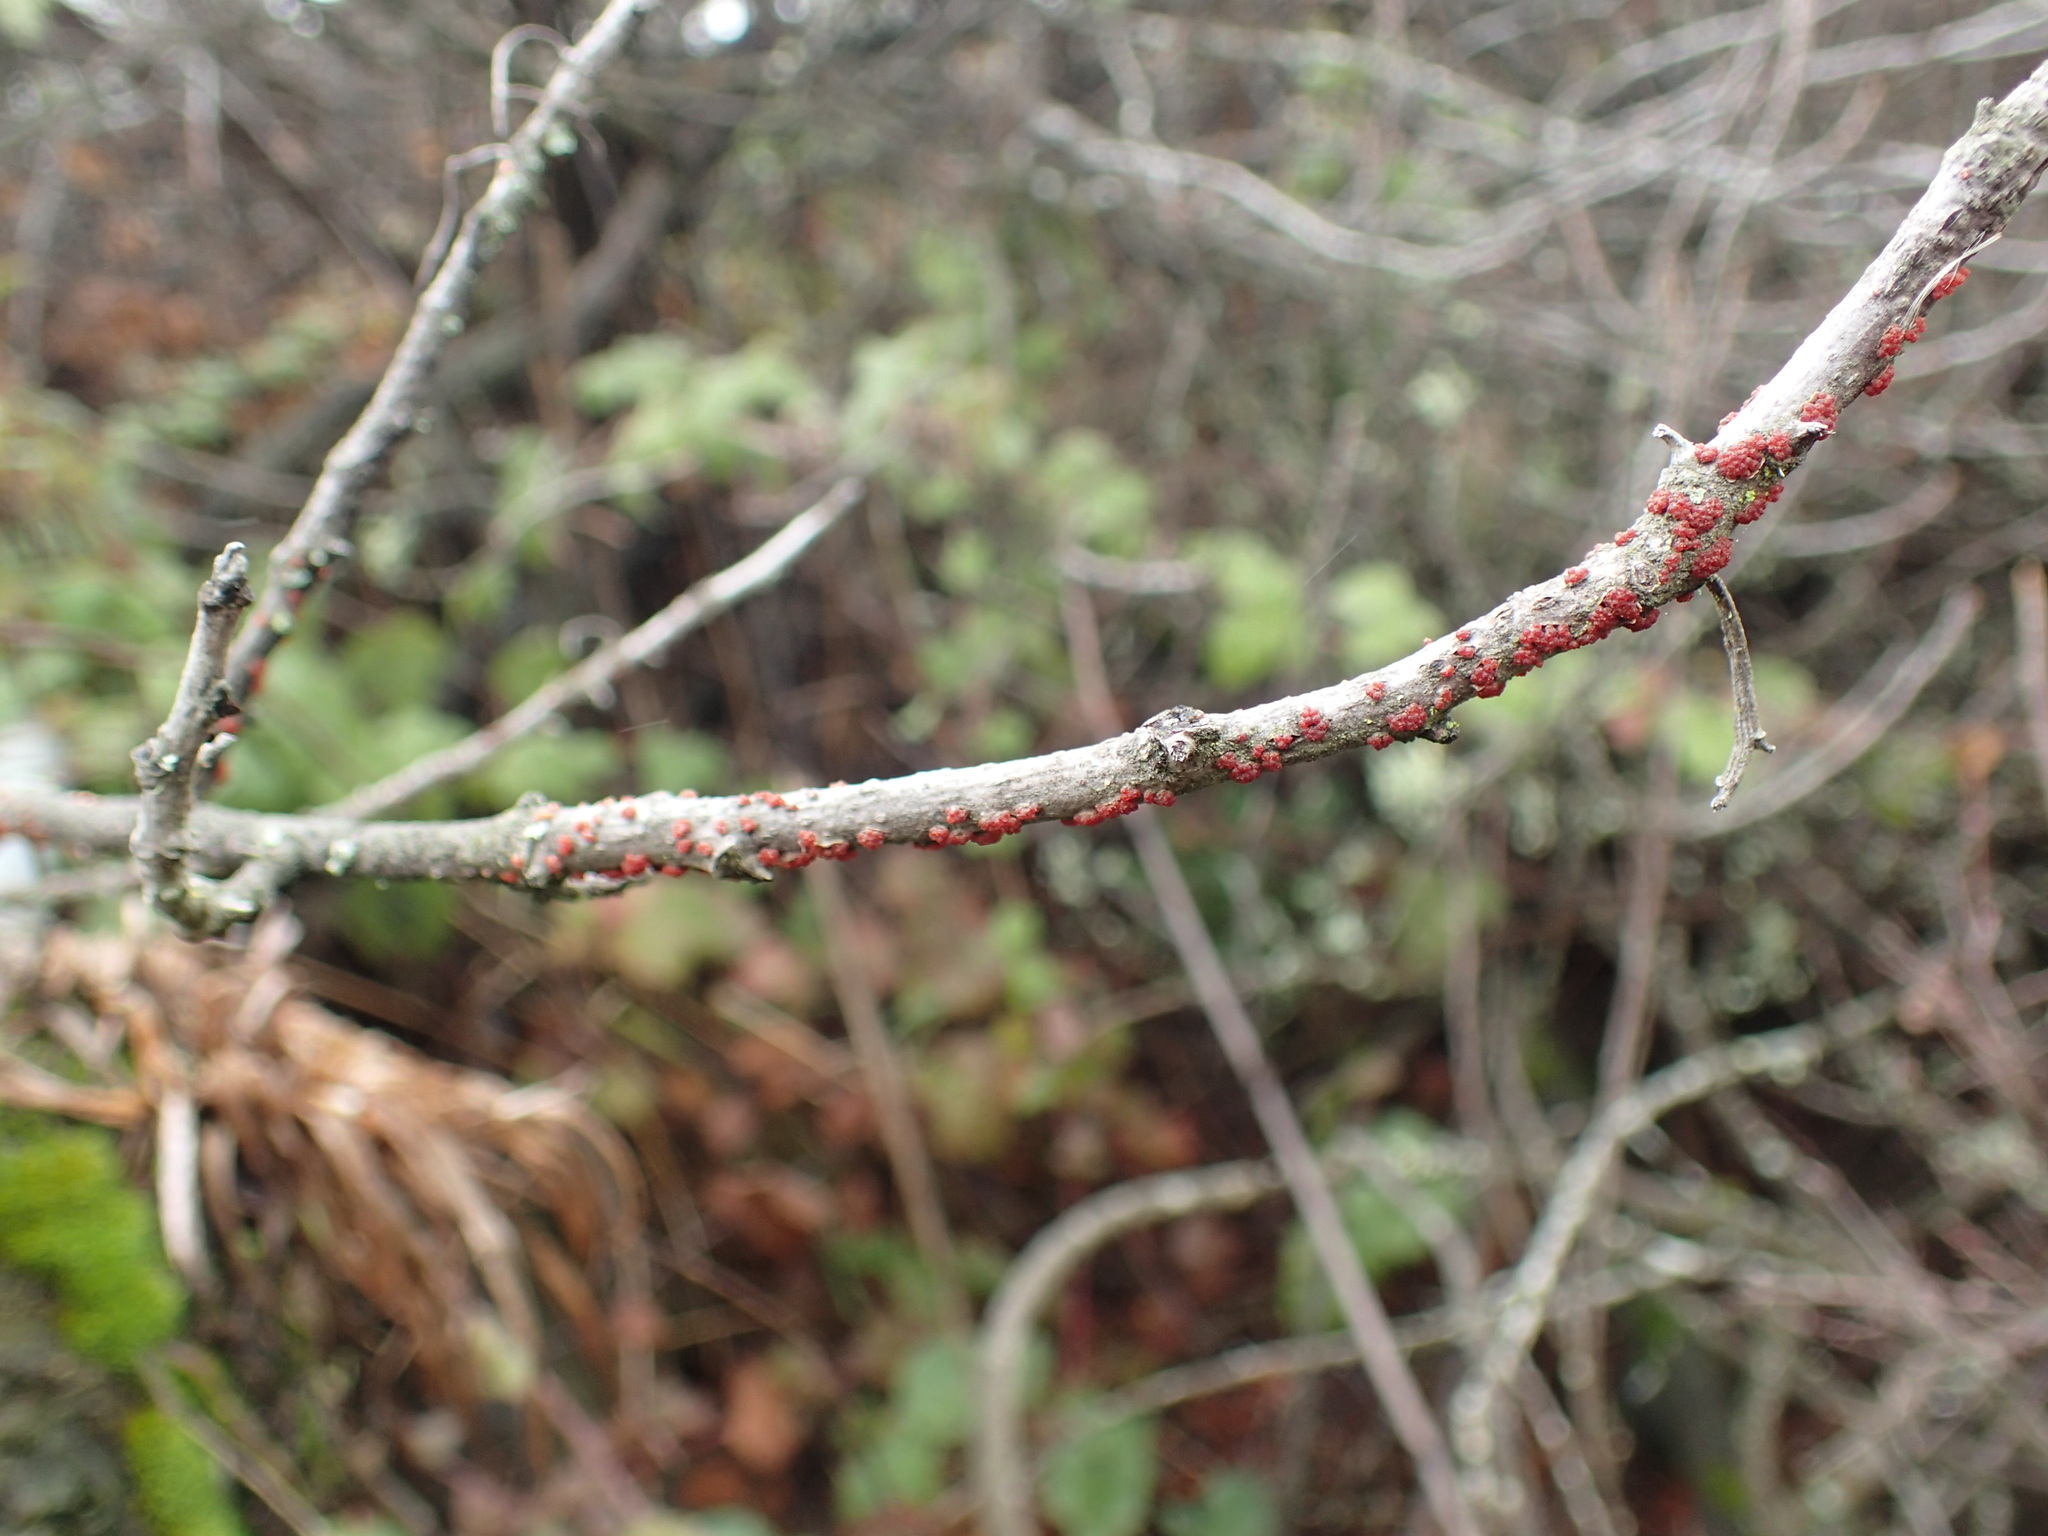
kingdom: Fungi
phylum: Ascomycota
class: Sordariomycetes
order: Hypocreales
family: Nectriaceae
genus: Nectria
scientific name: Nectria cinnabarina
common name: Coral spot
